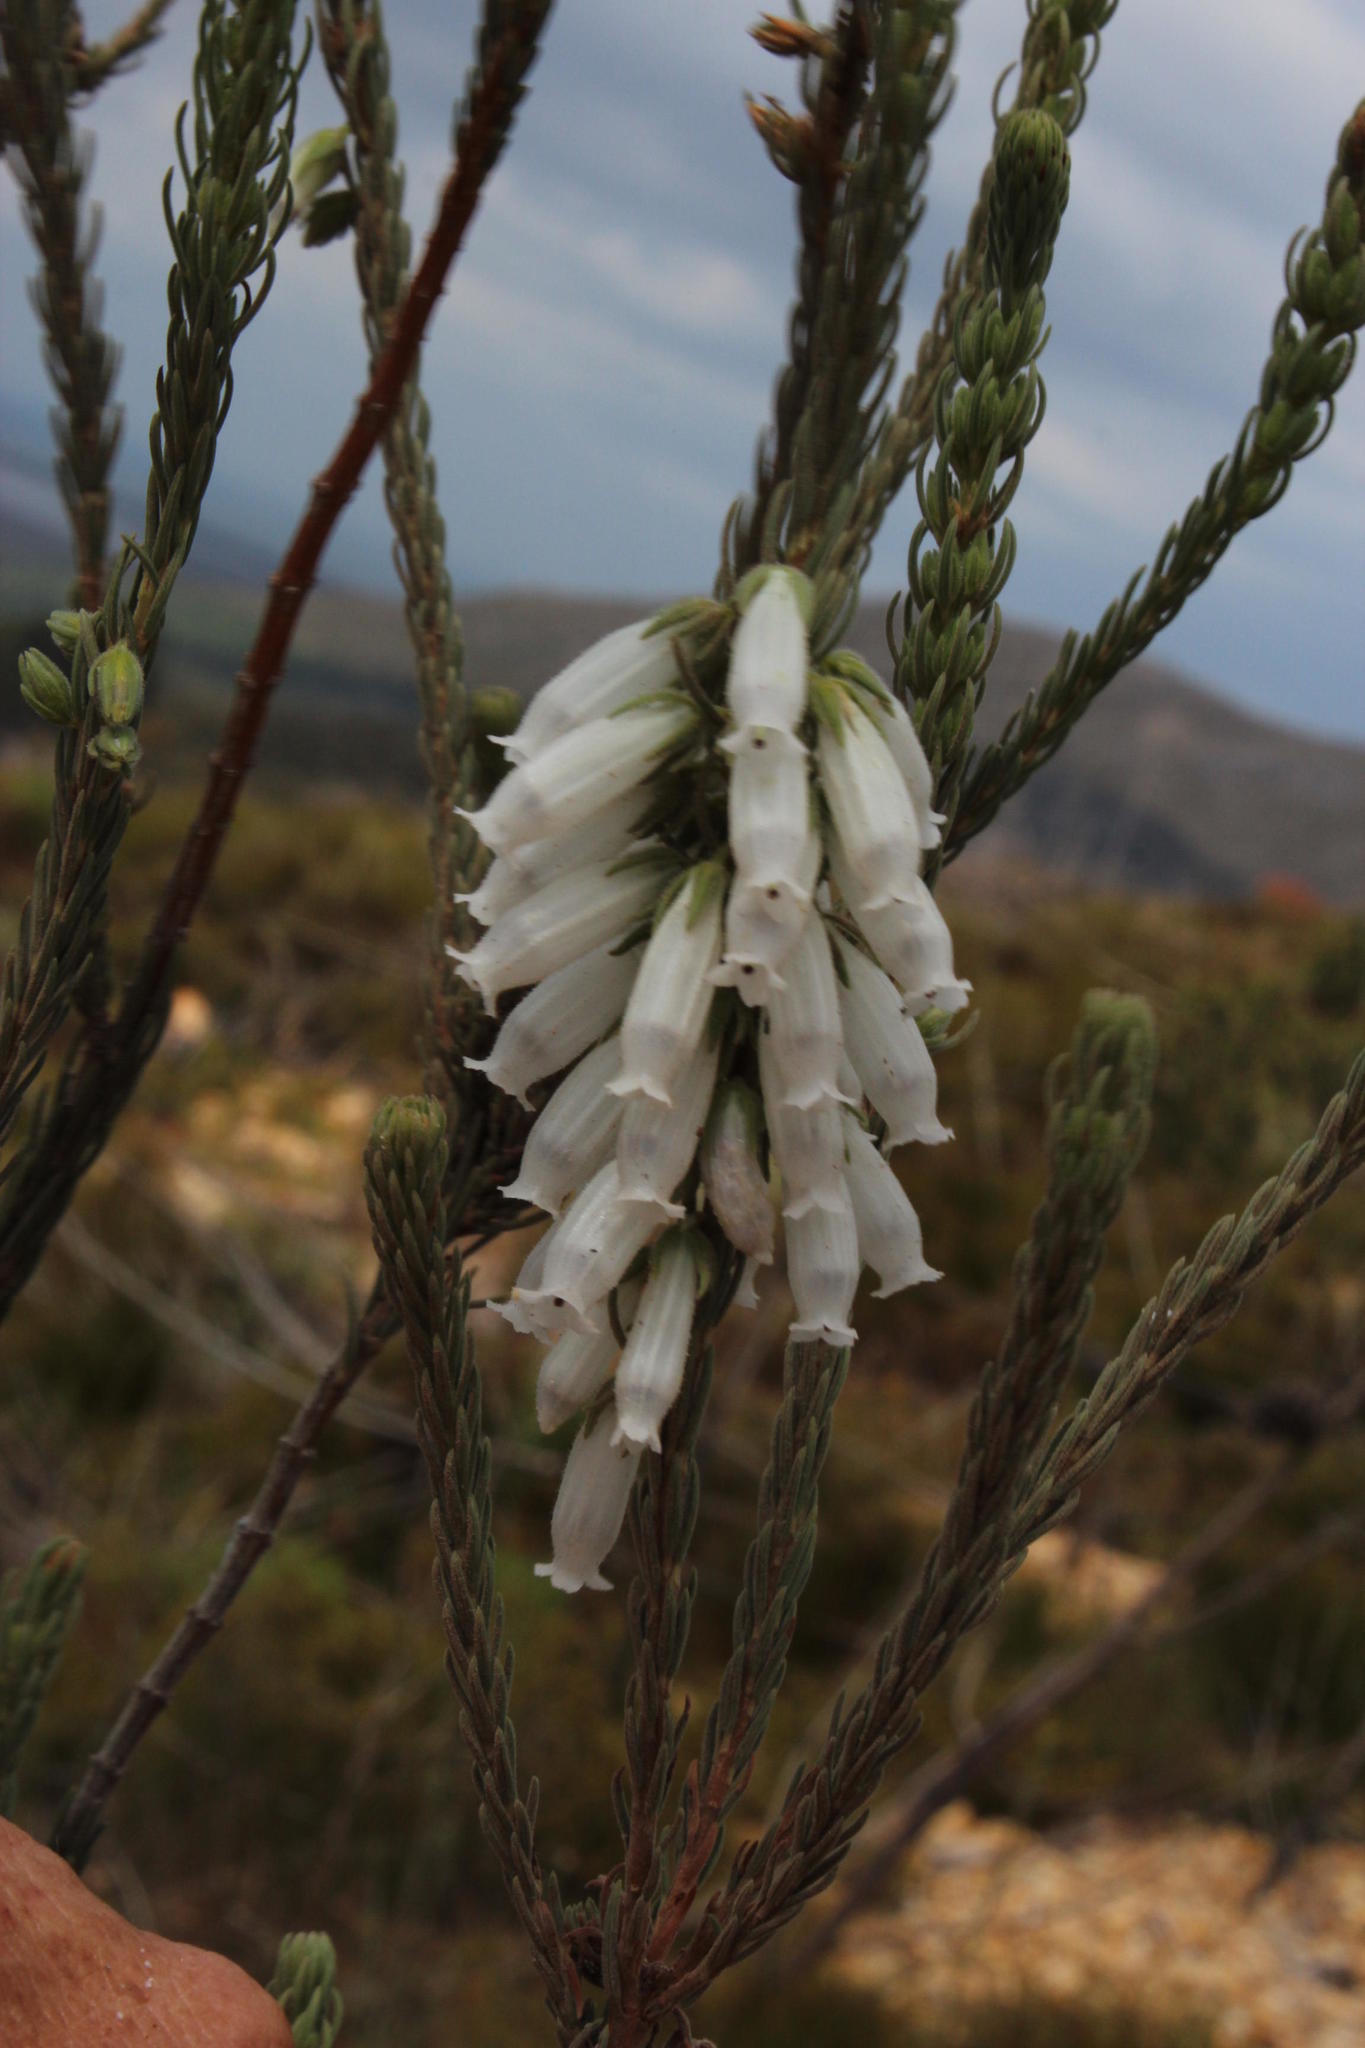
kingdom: Plantae
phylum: Tracheophyta
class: Magnoliopsida
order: Ericales
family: Ericaceae
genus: Erica
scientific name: Erica viscaria
